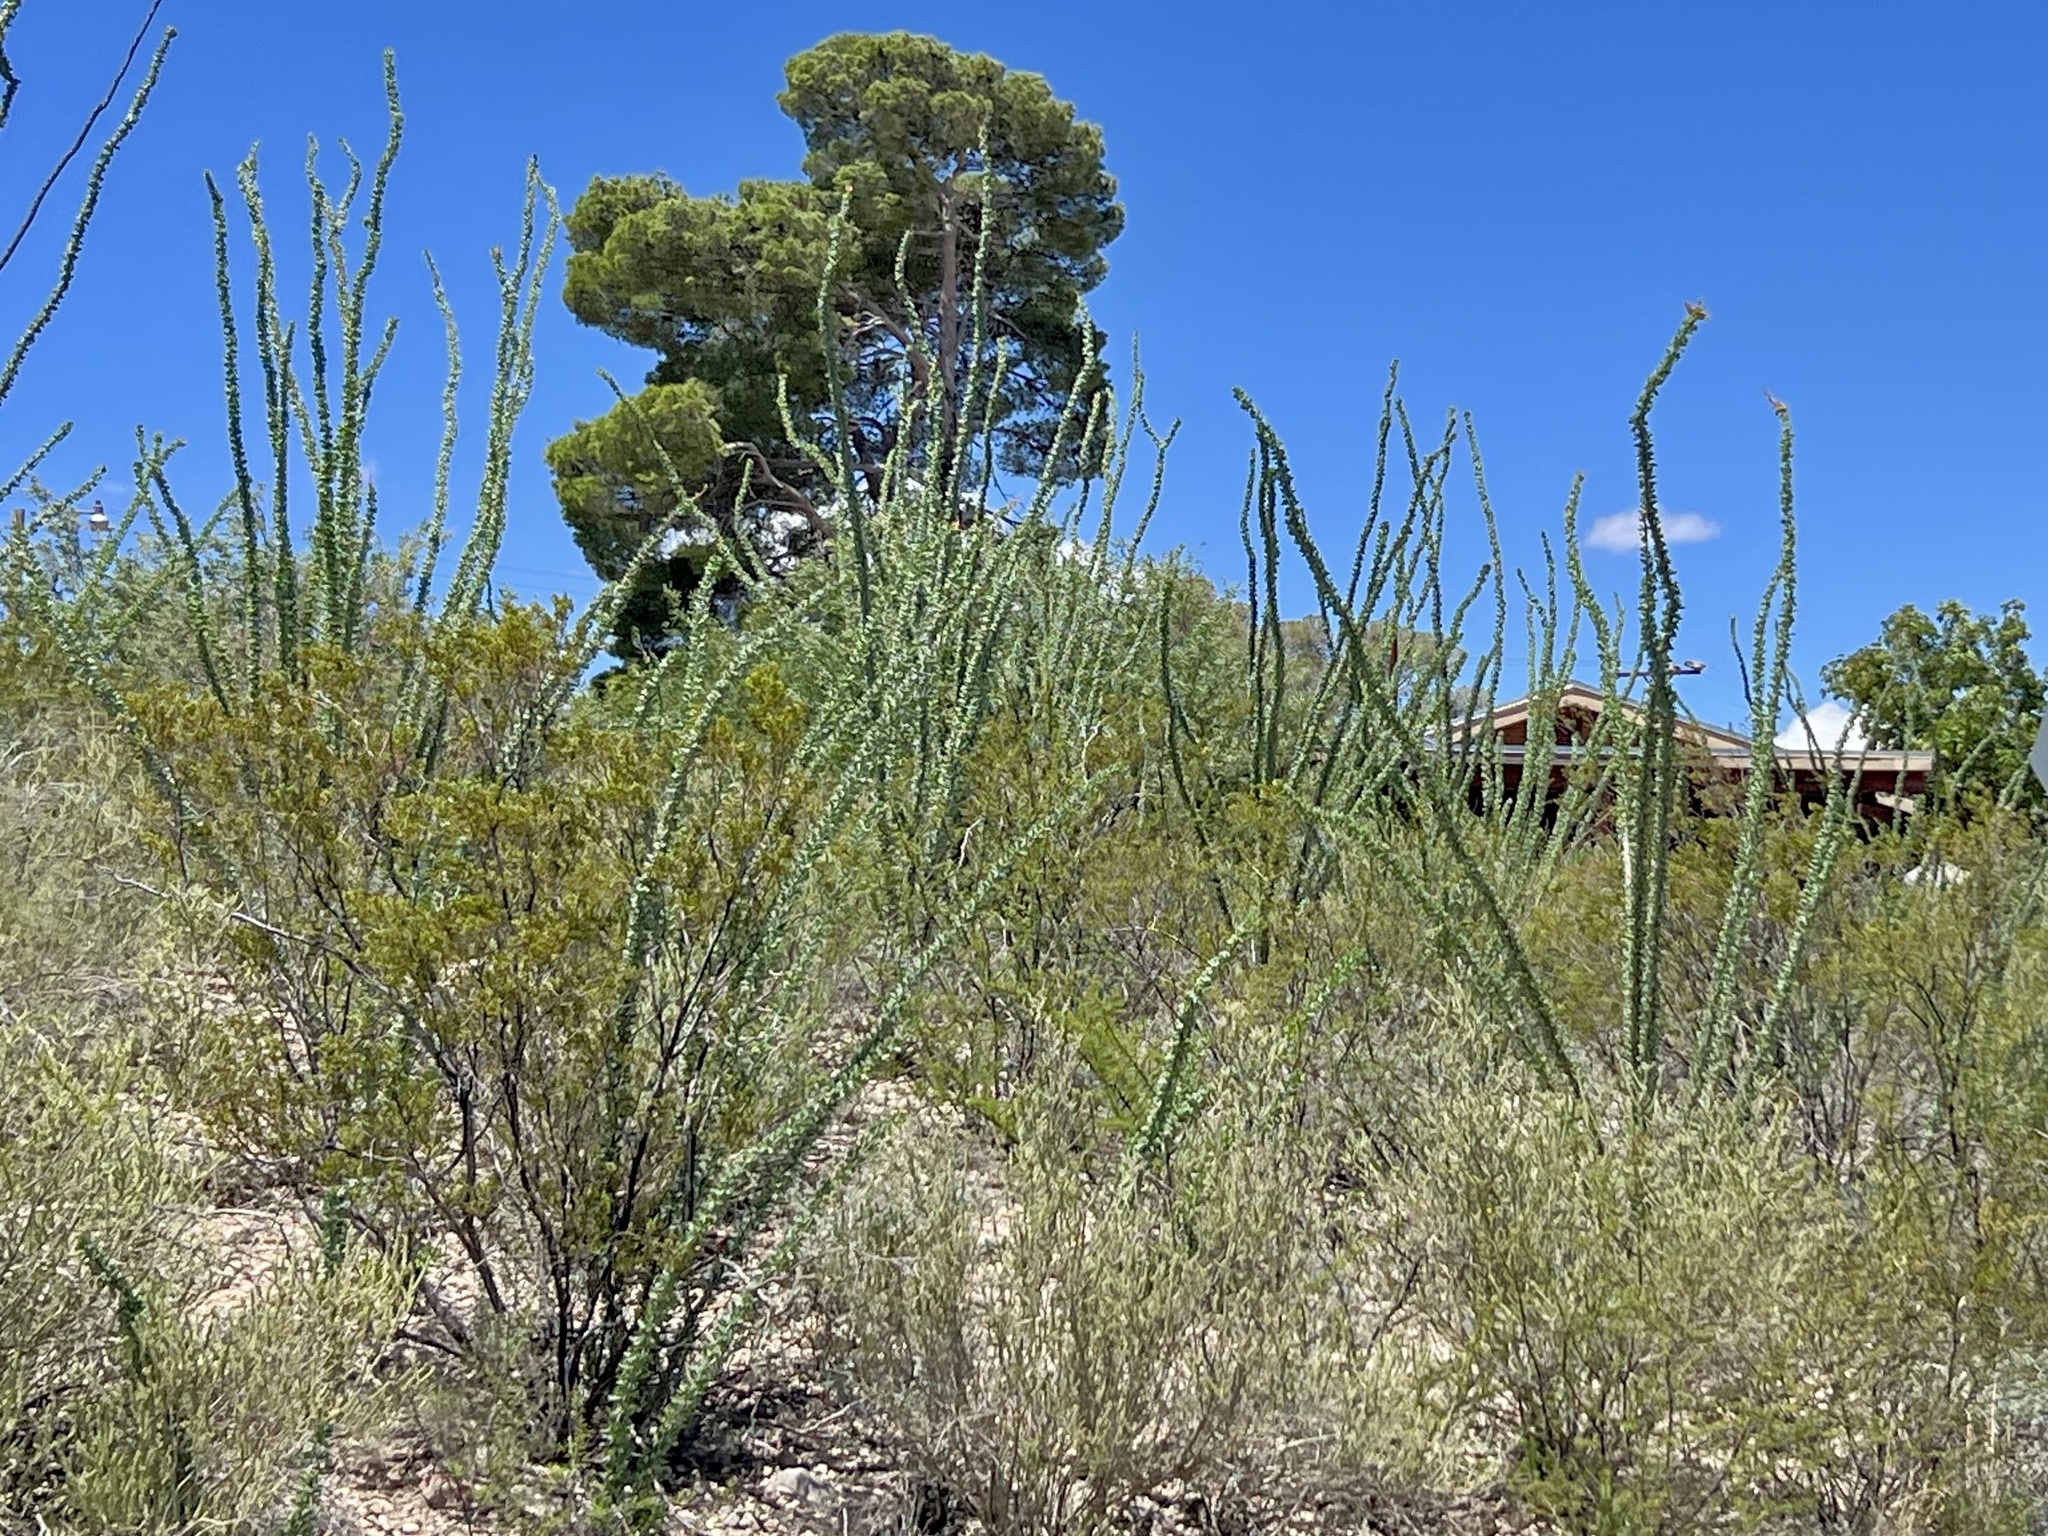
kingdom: Plantae
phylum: Tracheophyta
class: Magnoliopsida
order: Ericales
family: Fouquieriaceae
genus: Fouquieria
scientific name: Fouquieria splendens
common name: Vine-cactus
